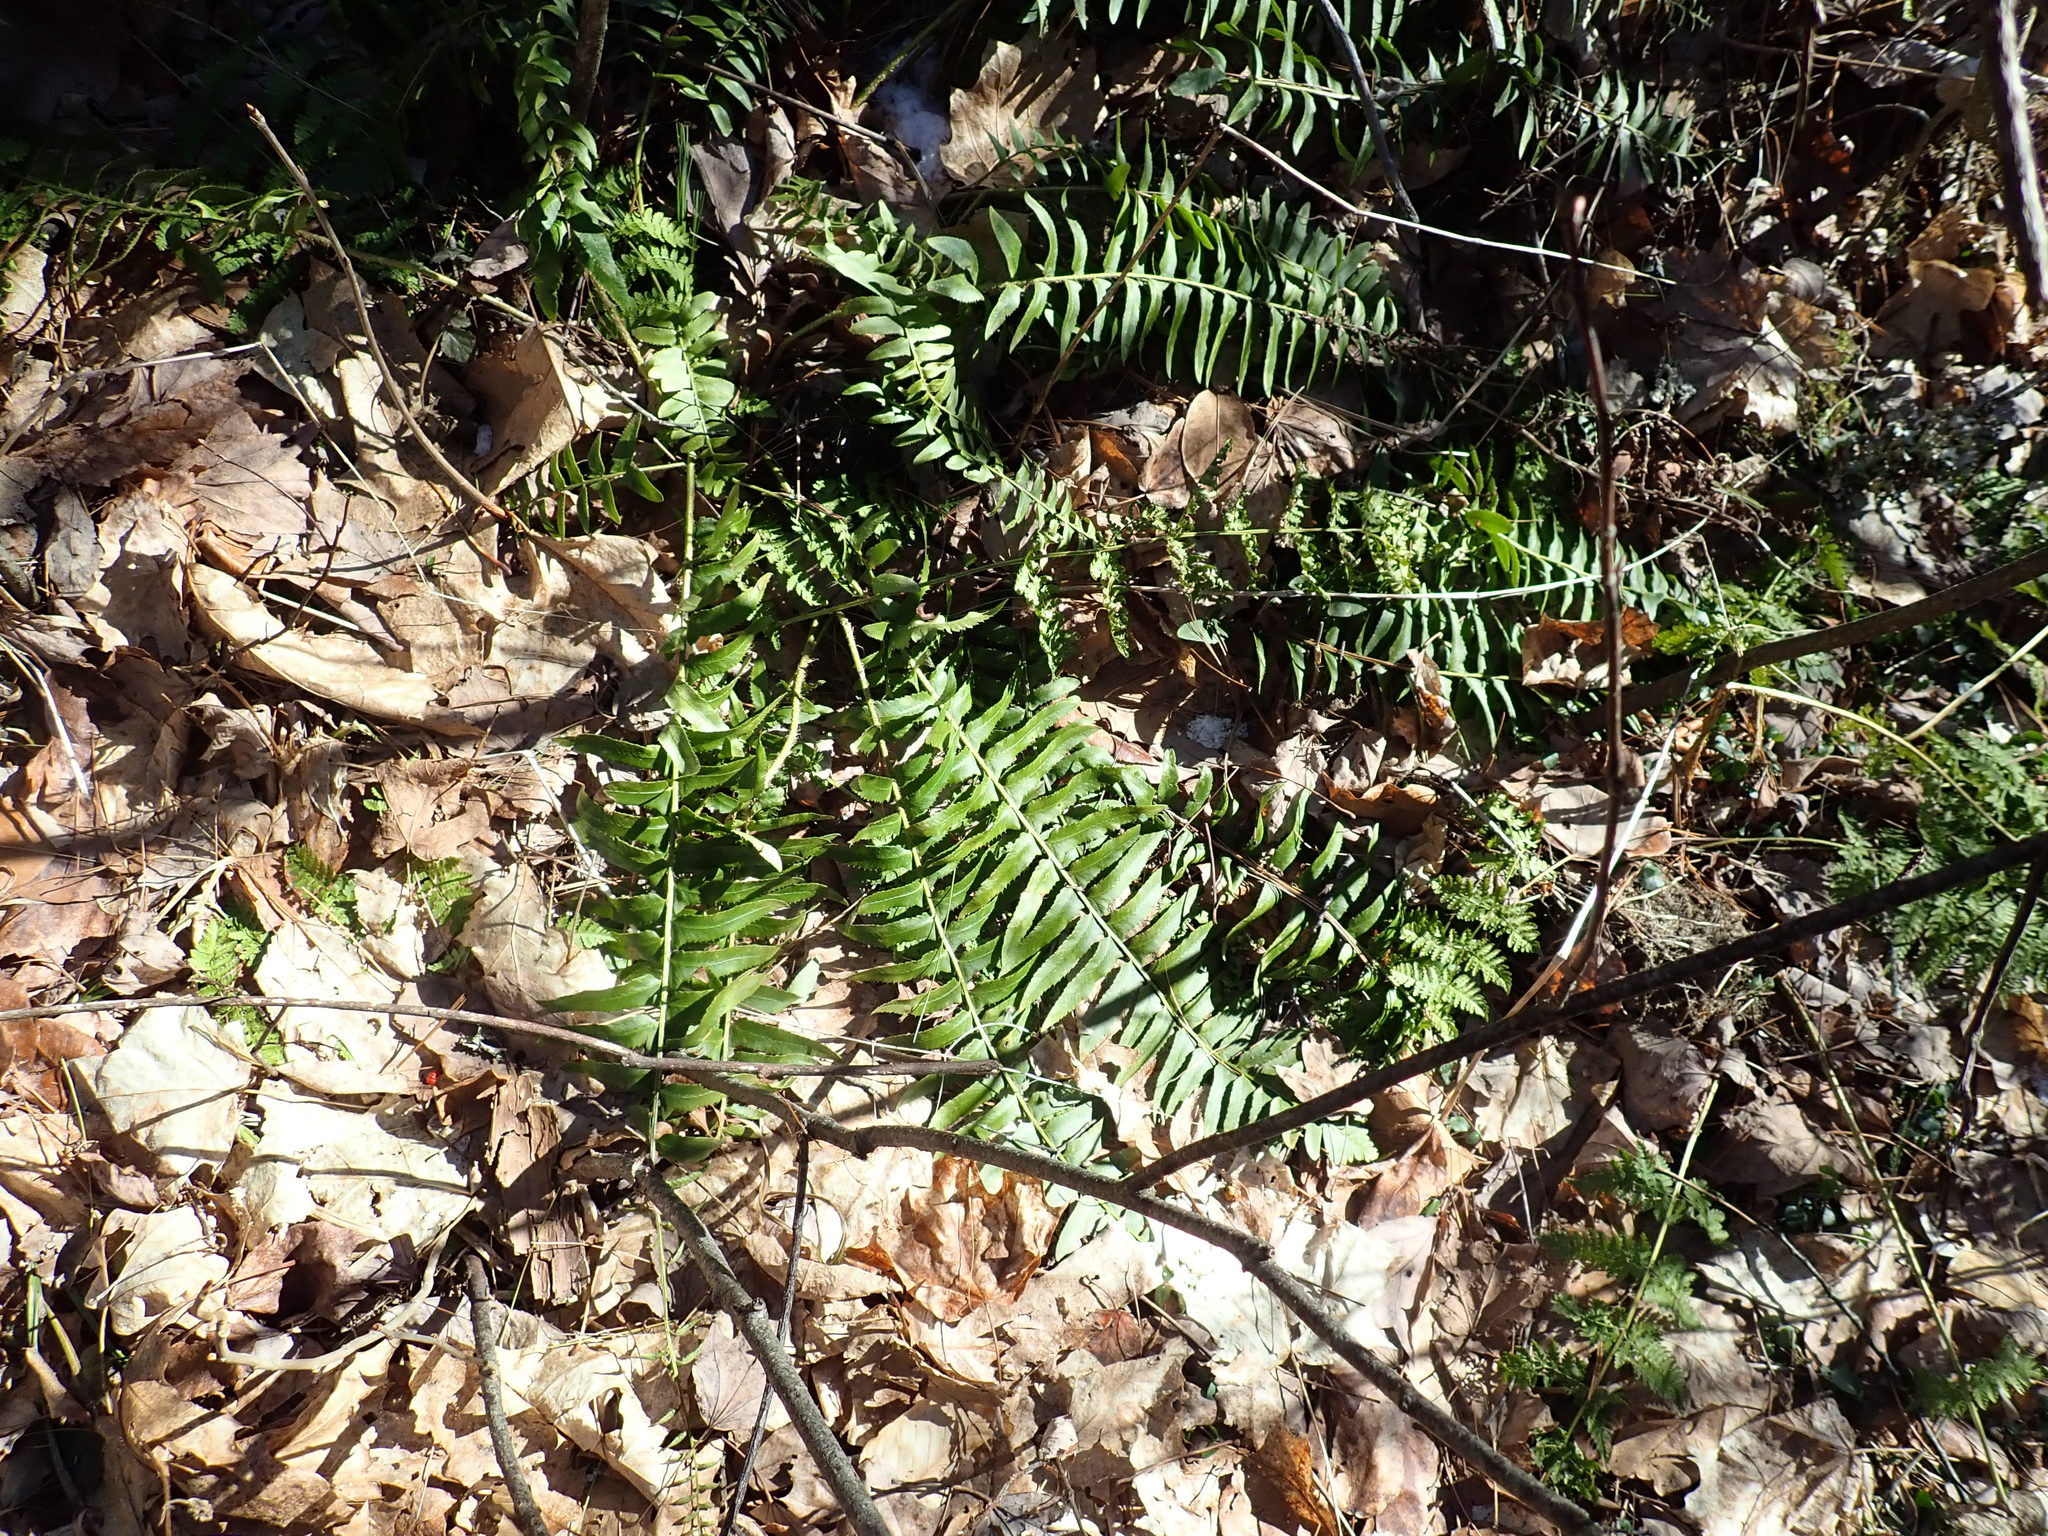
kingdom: Plantae
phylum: Tracheophyta
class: Polypodiopsida
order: Polypodiales
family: Dryopteridaceae
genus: Polystichum
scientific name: Polystichum acrostichoides
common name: Christmas fern
